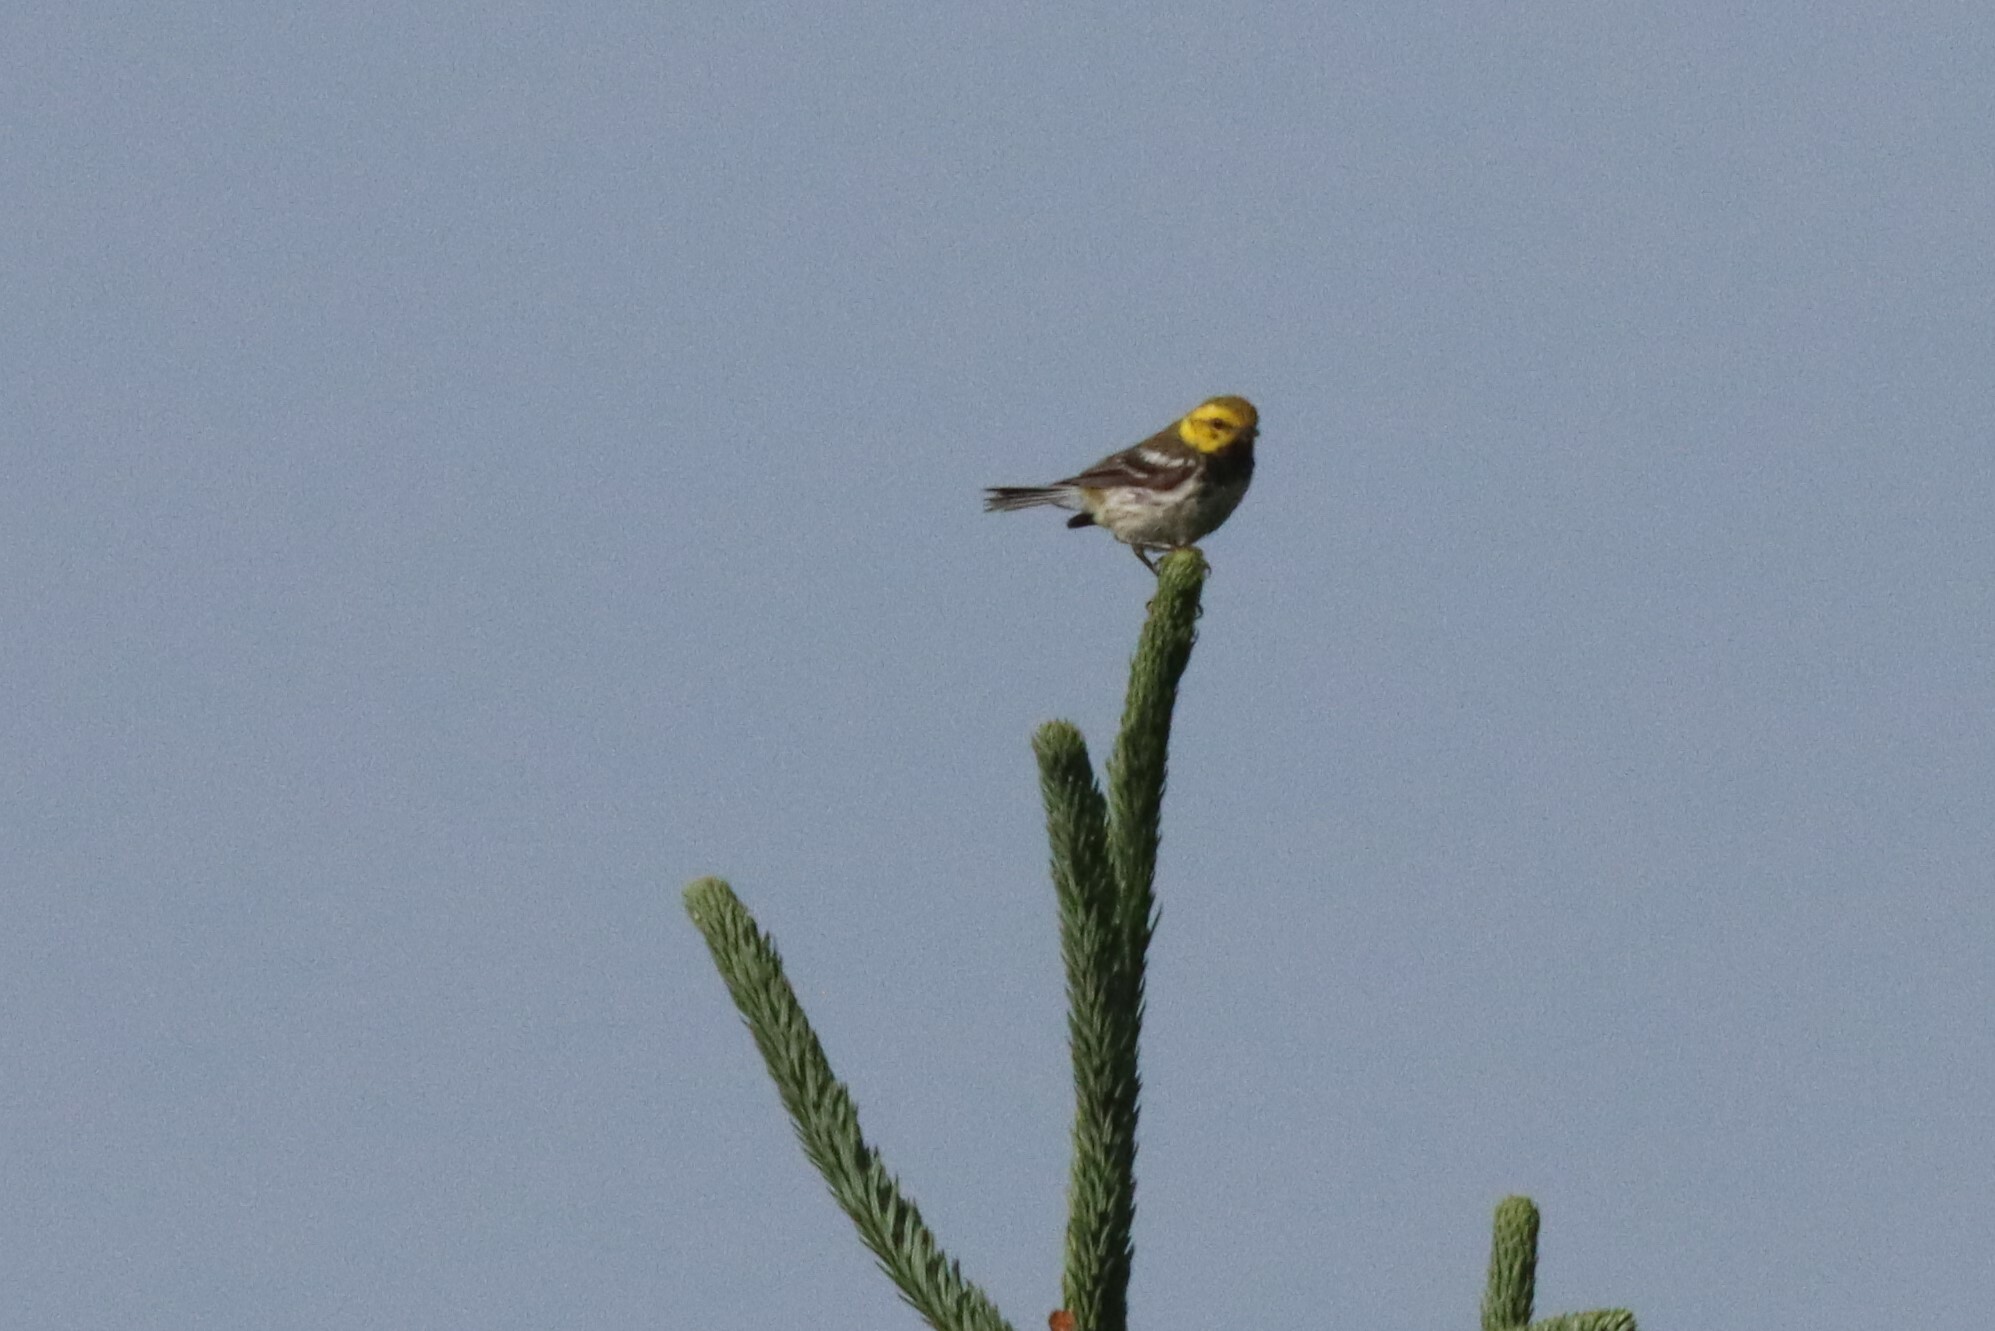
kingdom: Animalia
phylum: Chordata
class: Aves
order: Passeriformes
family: Parulidae
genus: Setophaga
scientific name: Setophaga virens
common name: Black-throated green warbler
